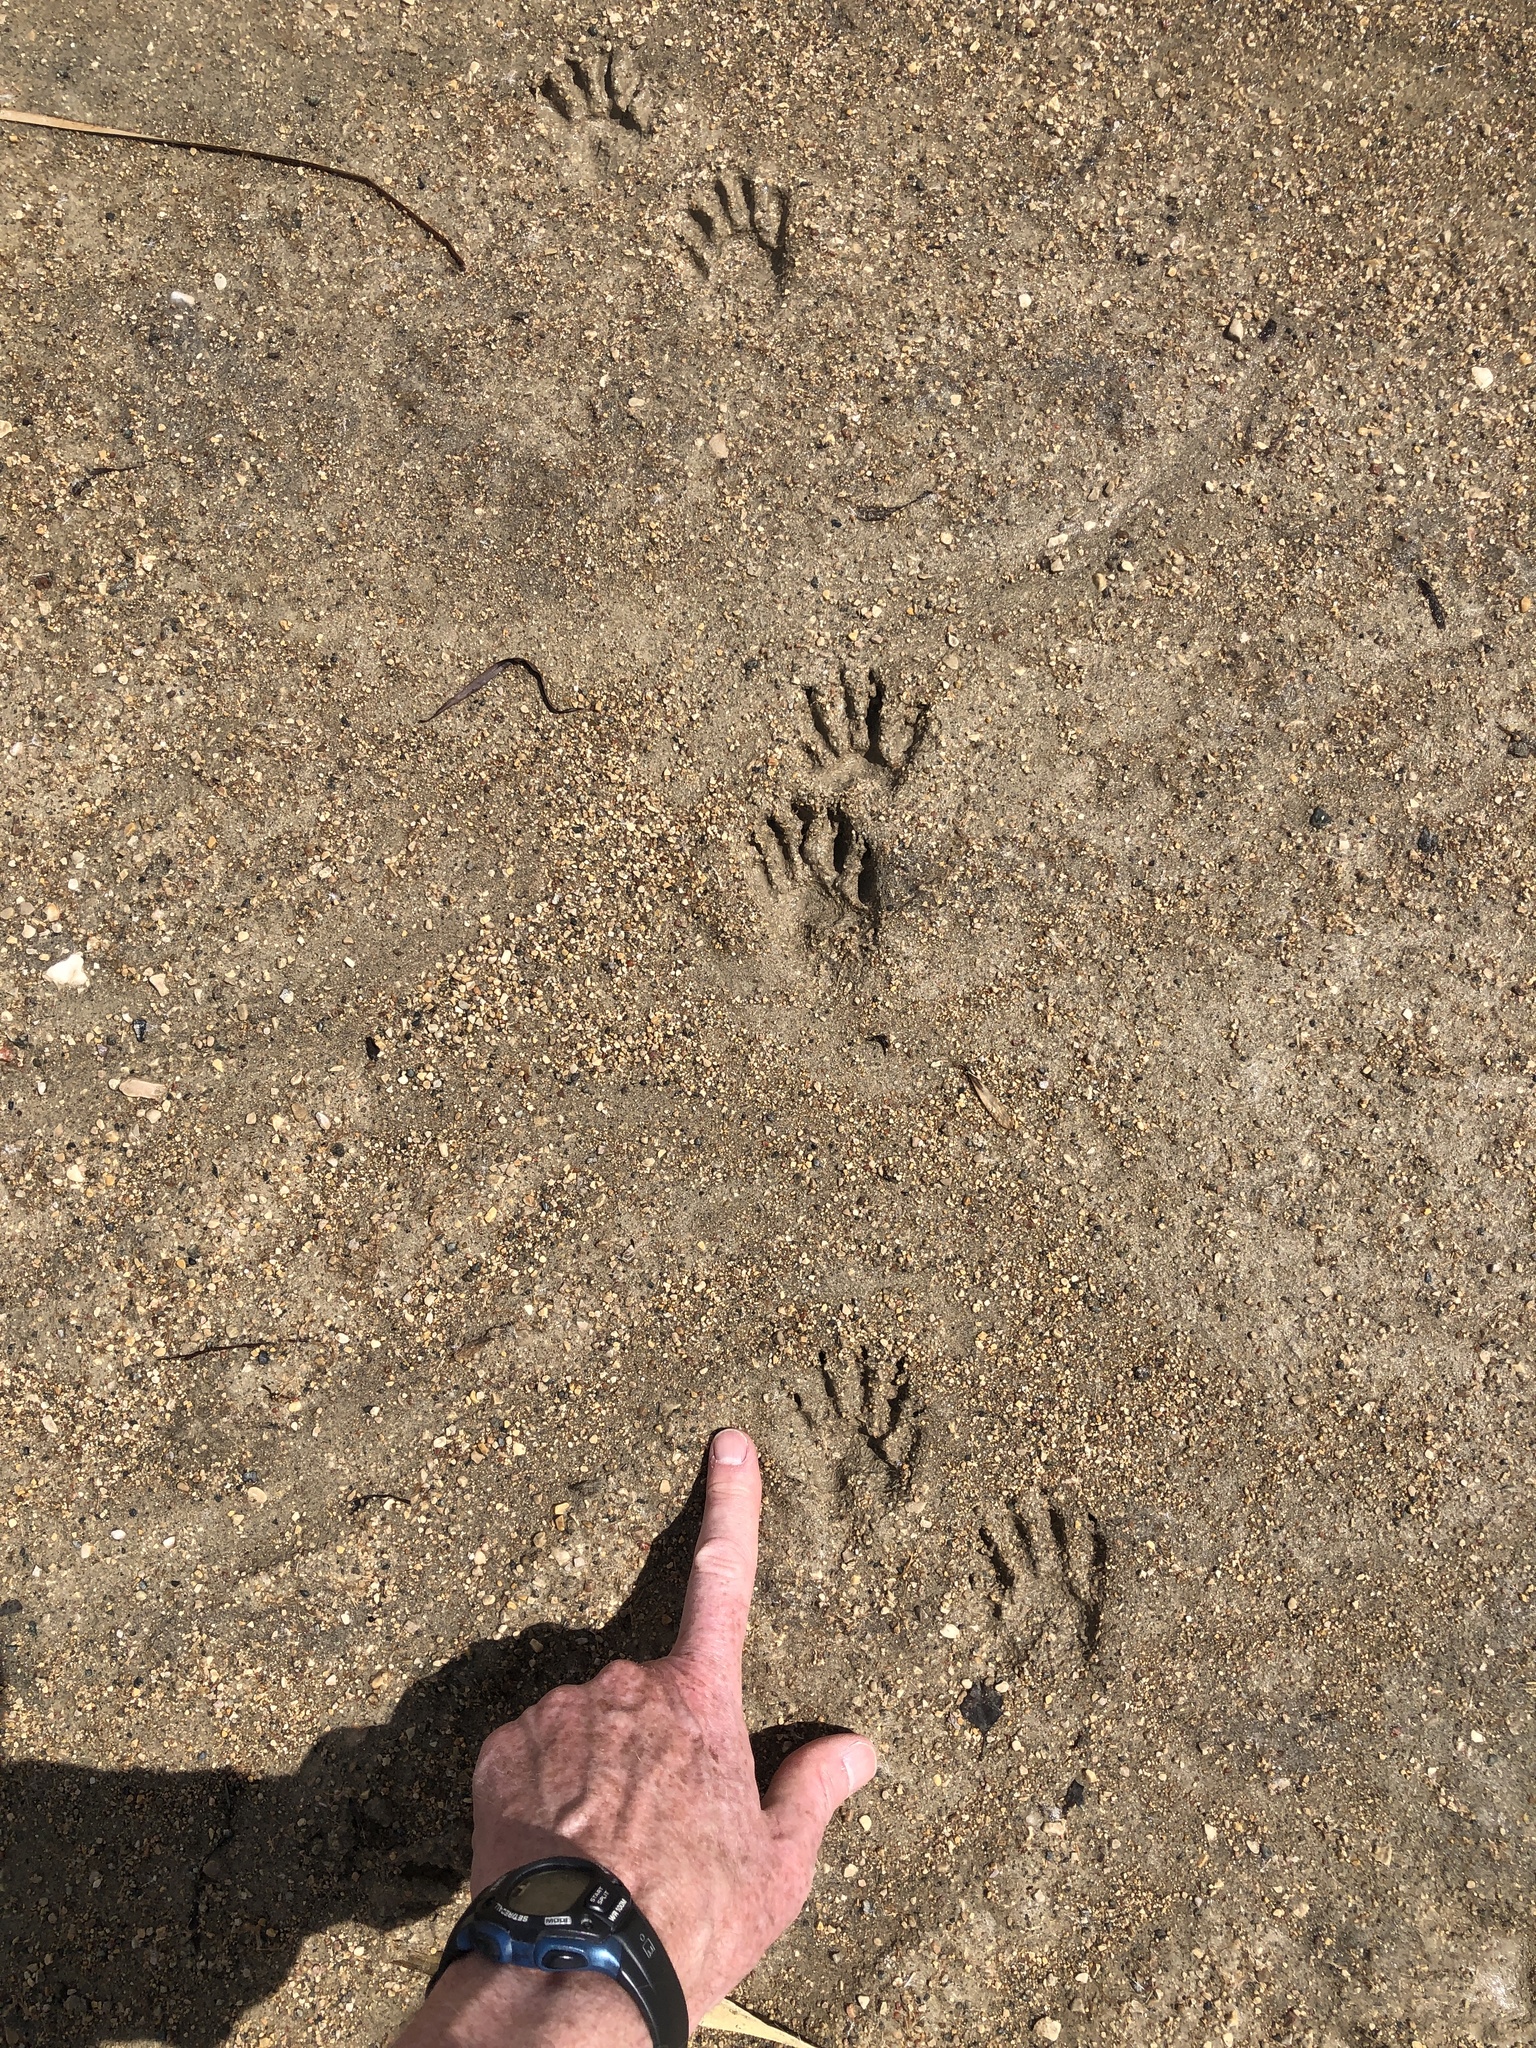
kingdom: Animalia
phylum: Chordata
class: Mammalia
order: Carnivora
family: Procyonidae
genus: Procyon
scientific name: Procyon lotor
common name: Raccoon
